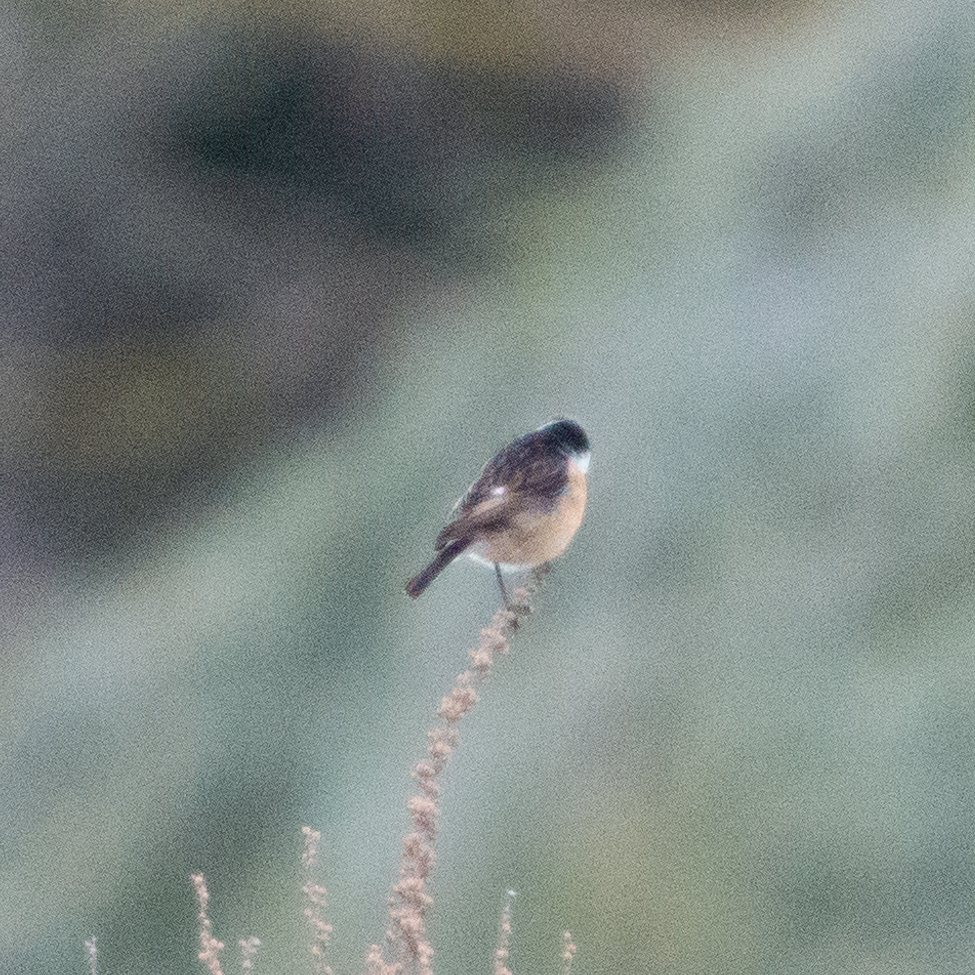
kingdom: Animalia
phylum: Chordata
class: Aves
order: Passeriformes
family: Muscicapidae
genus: Saxicola
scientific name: Saxicola rubicola
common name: European stonechat
